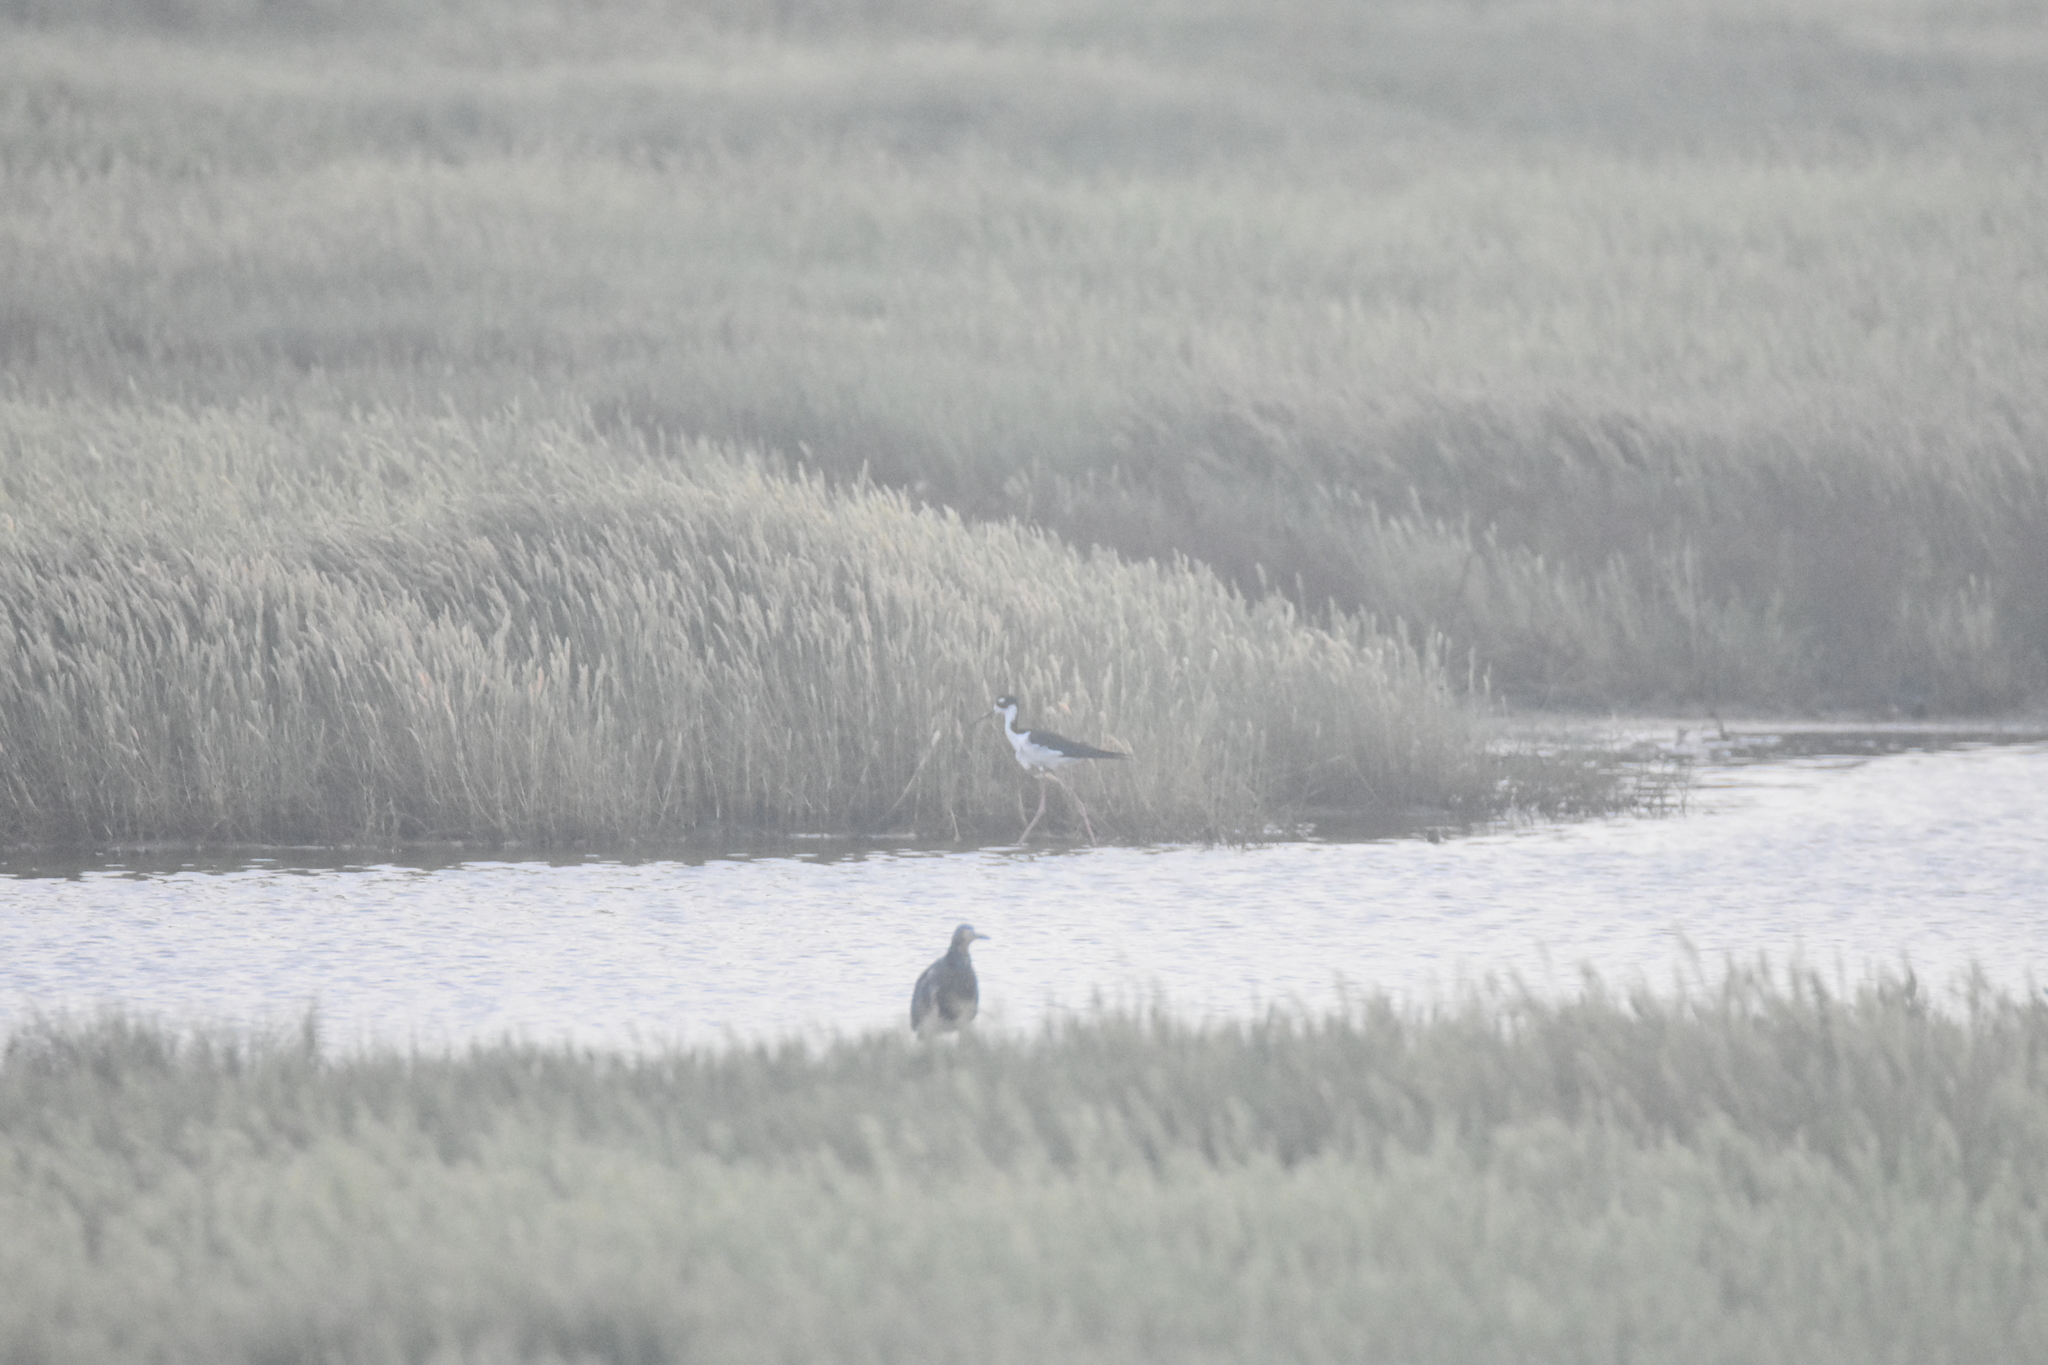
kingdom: Animalia
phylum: Chordata
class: Aves
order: Charadriiformes
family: Recurvirostridae
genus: Himantopus
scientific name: Himantopus mexicanus
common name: Black-necked stilt
